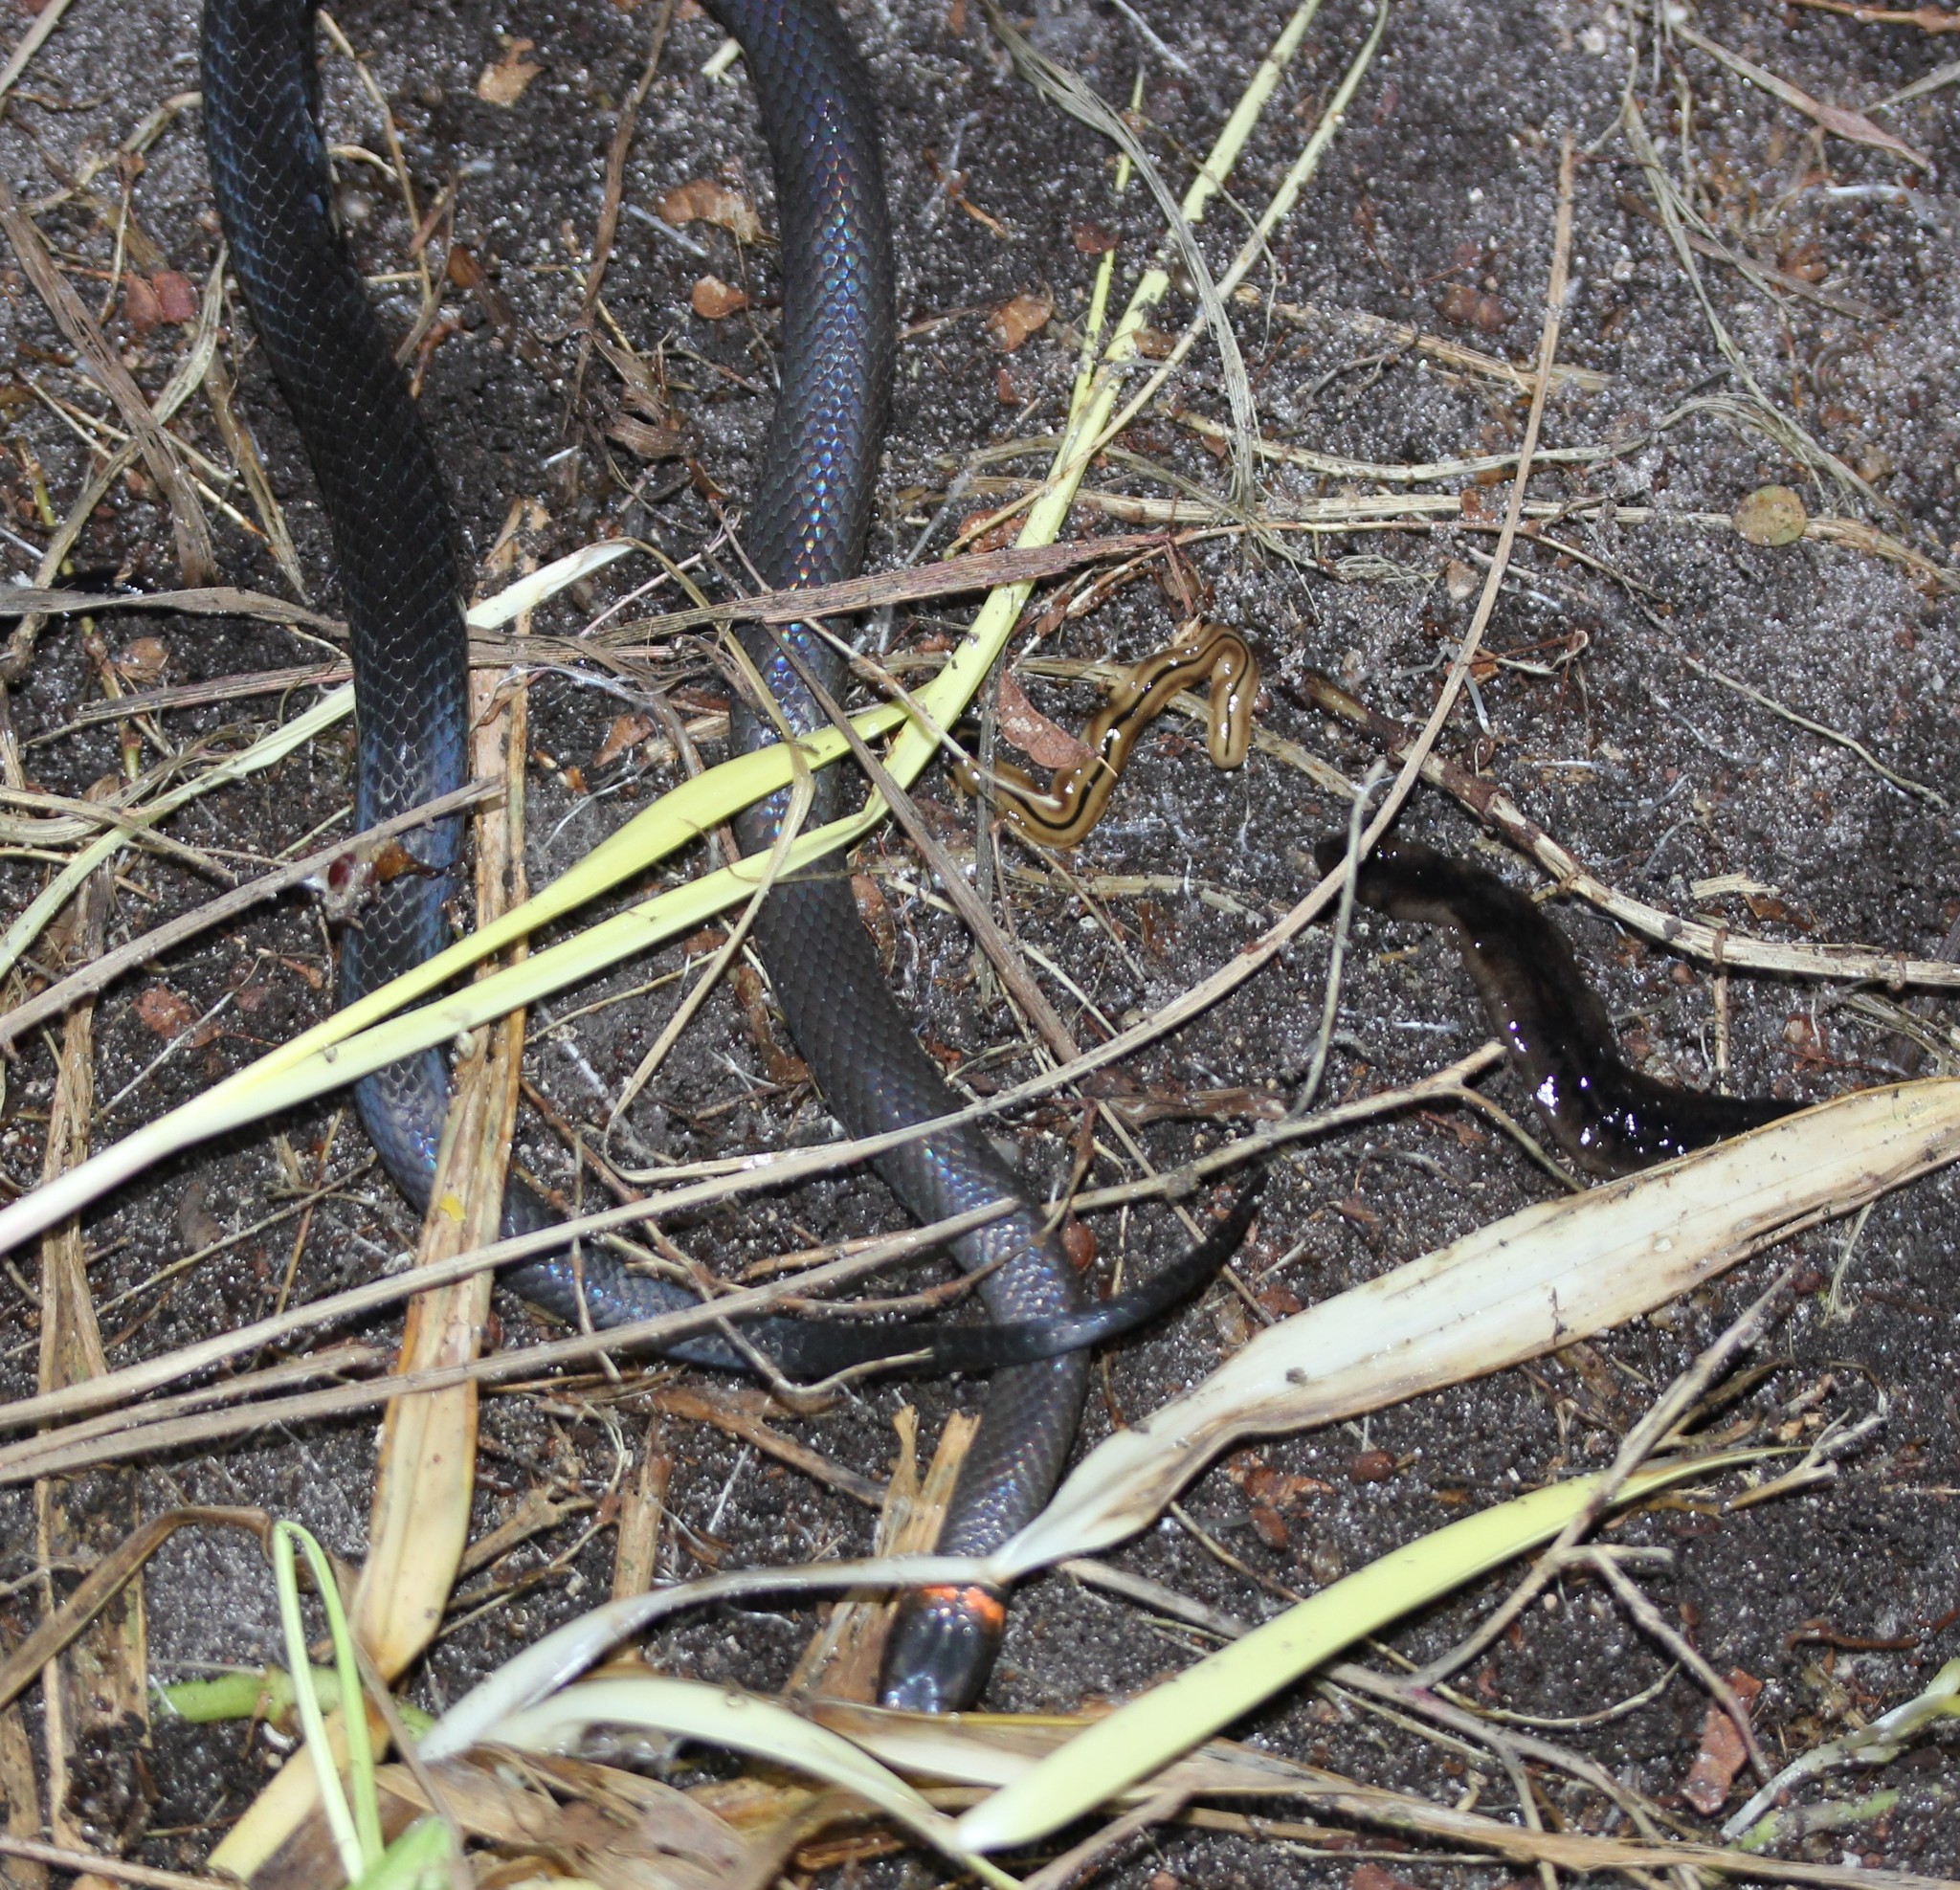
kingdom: Animalia
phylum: Platyhelminthes
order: Tricladida
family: Geoplanidae
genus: Bipalium
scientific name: Bipalium vagum
